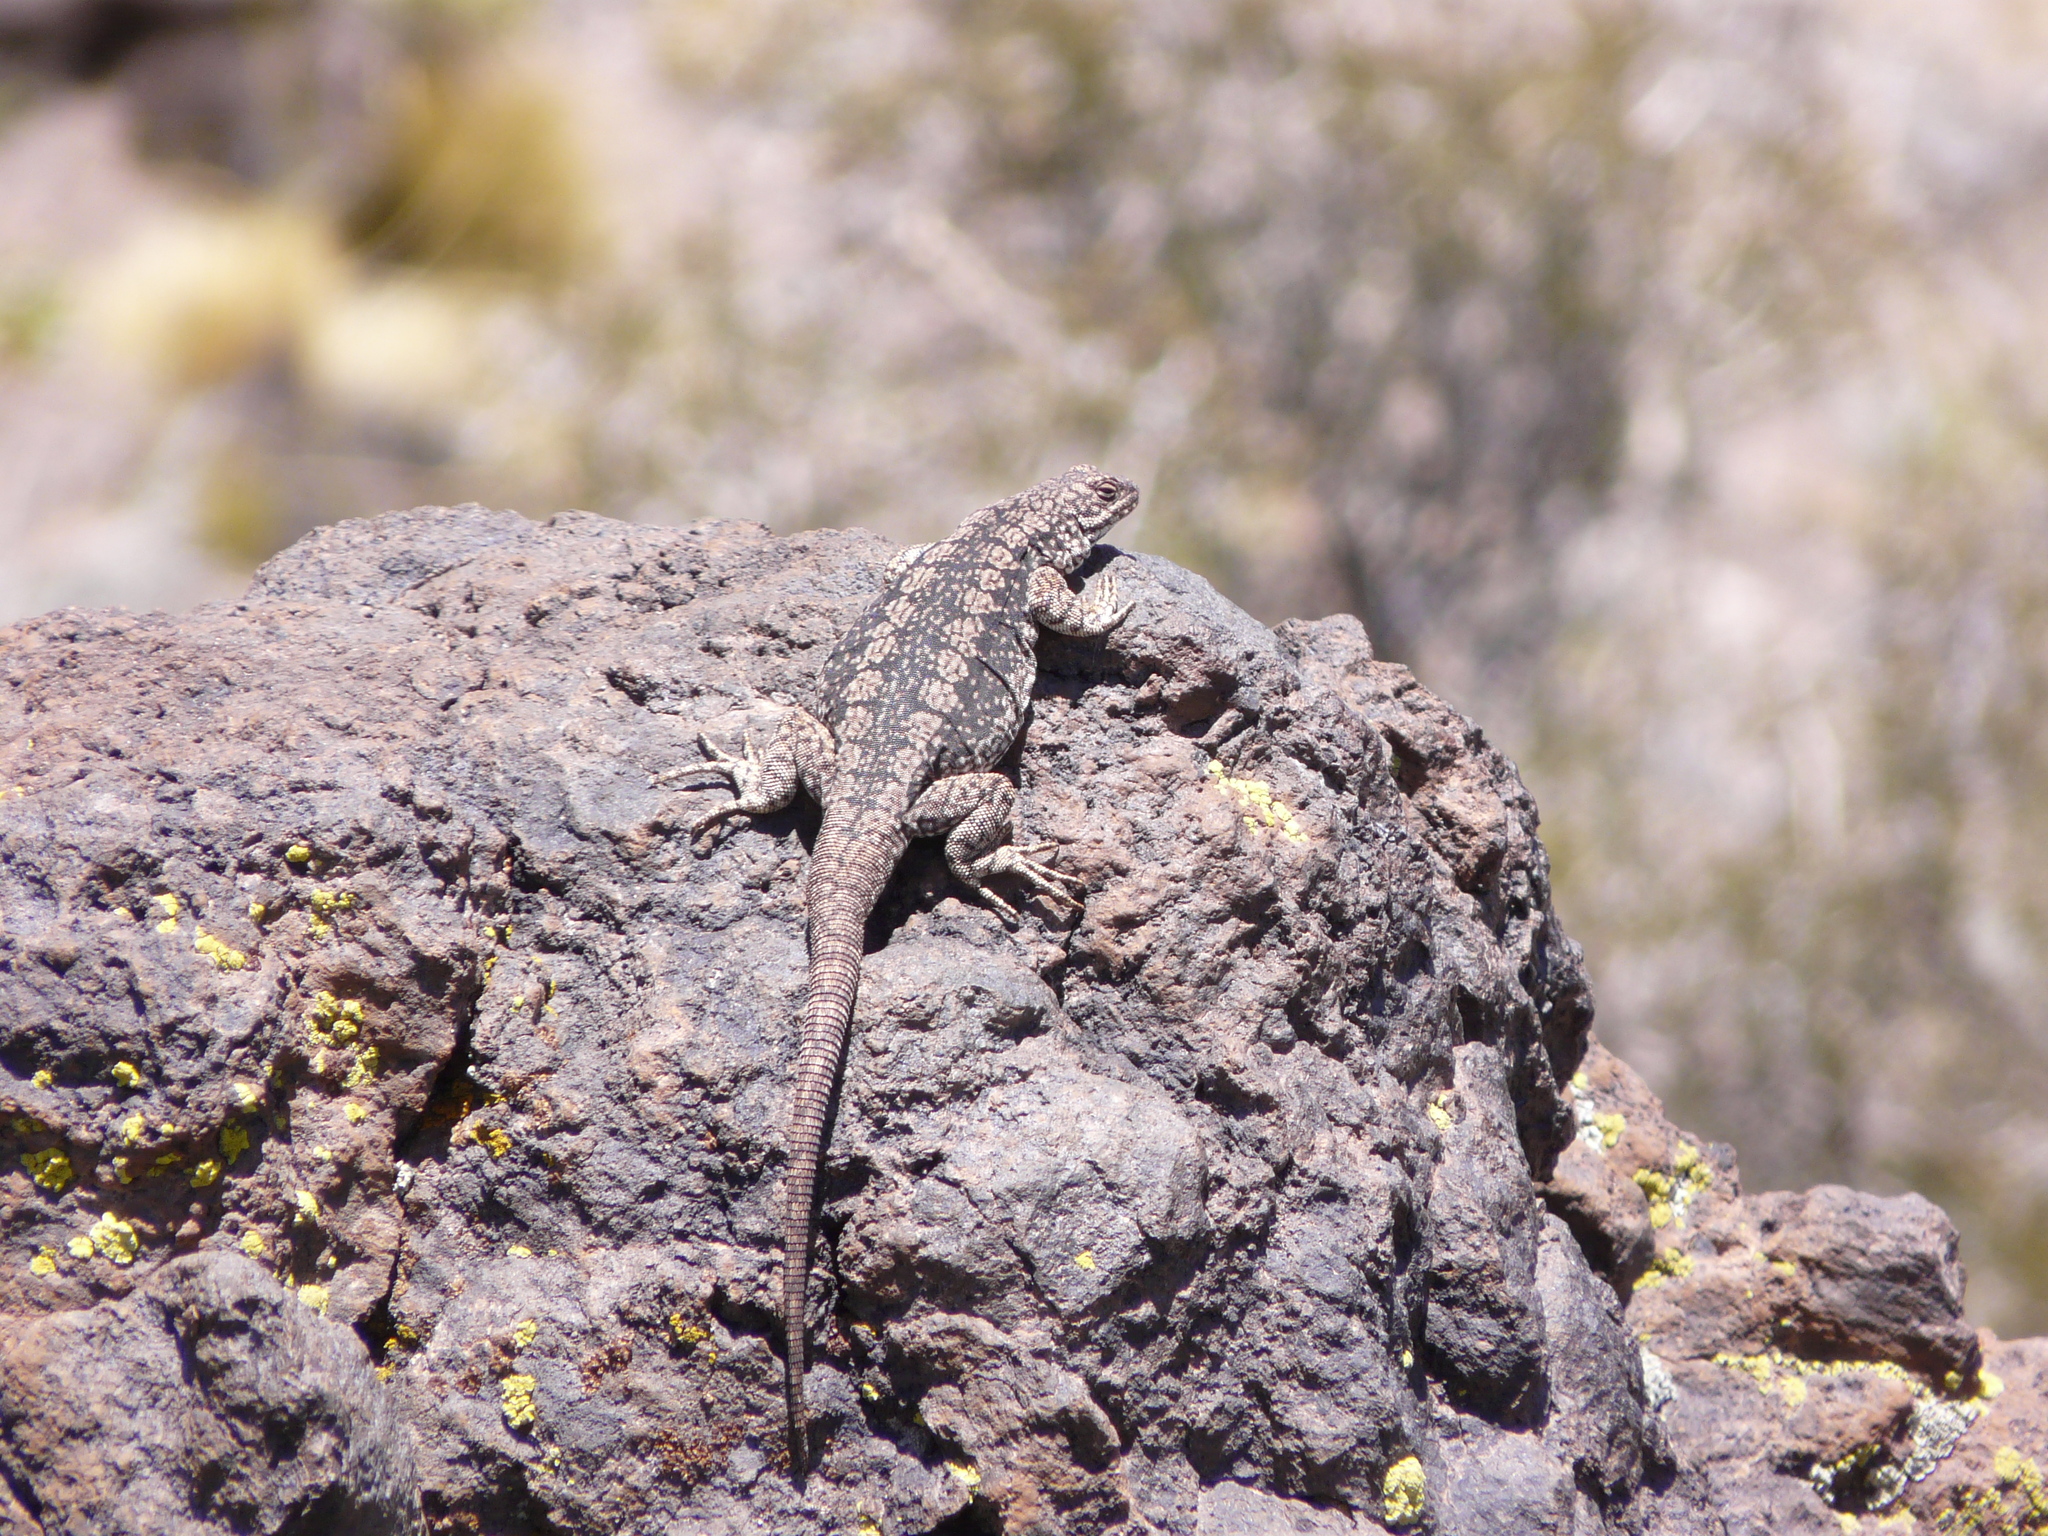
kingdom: Animalia
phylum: Chordata
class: Squamata
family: Liolaemidae
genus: Phymaturus
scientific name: Phymaturus payuniae
